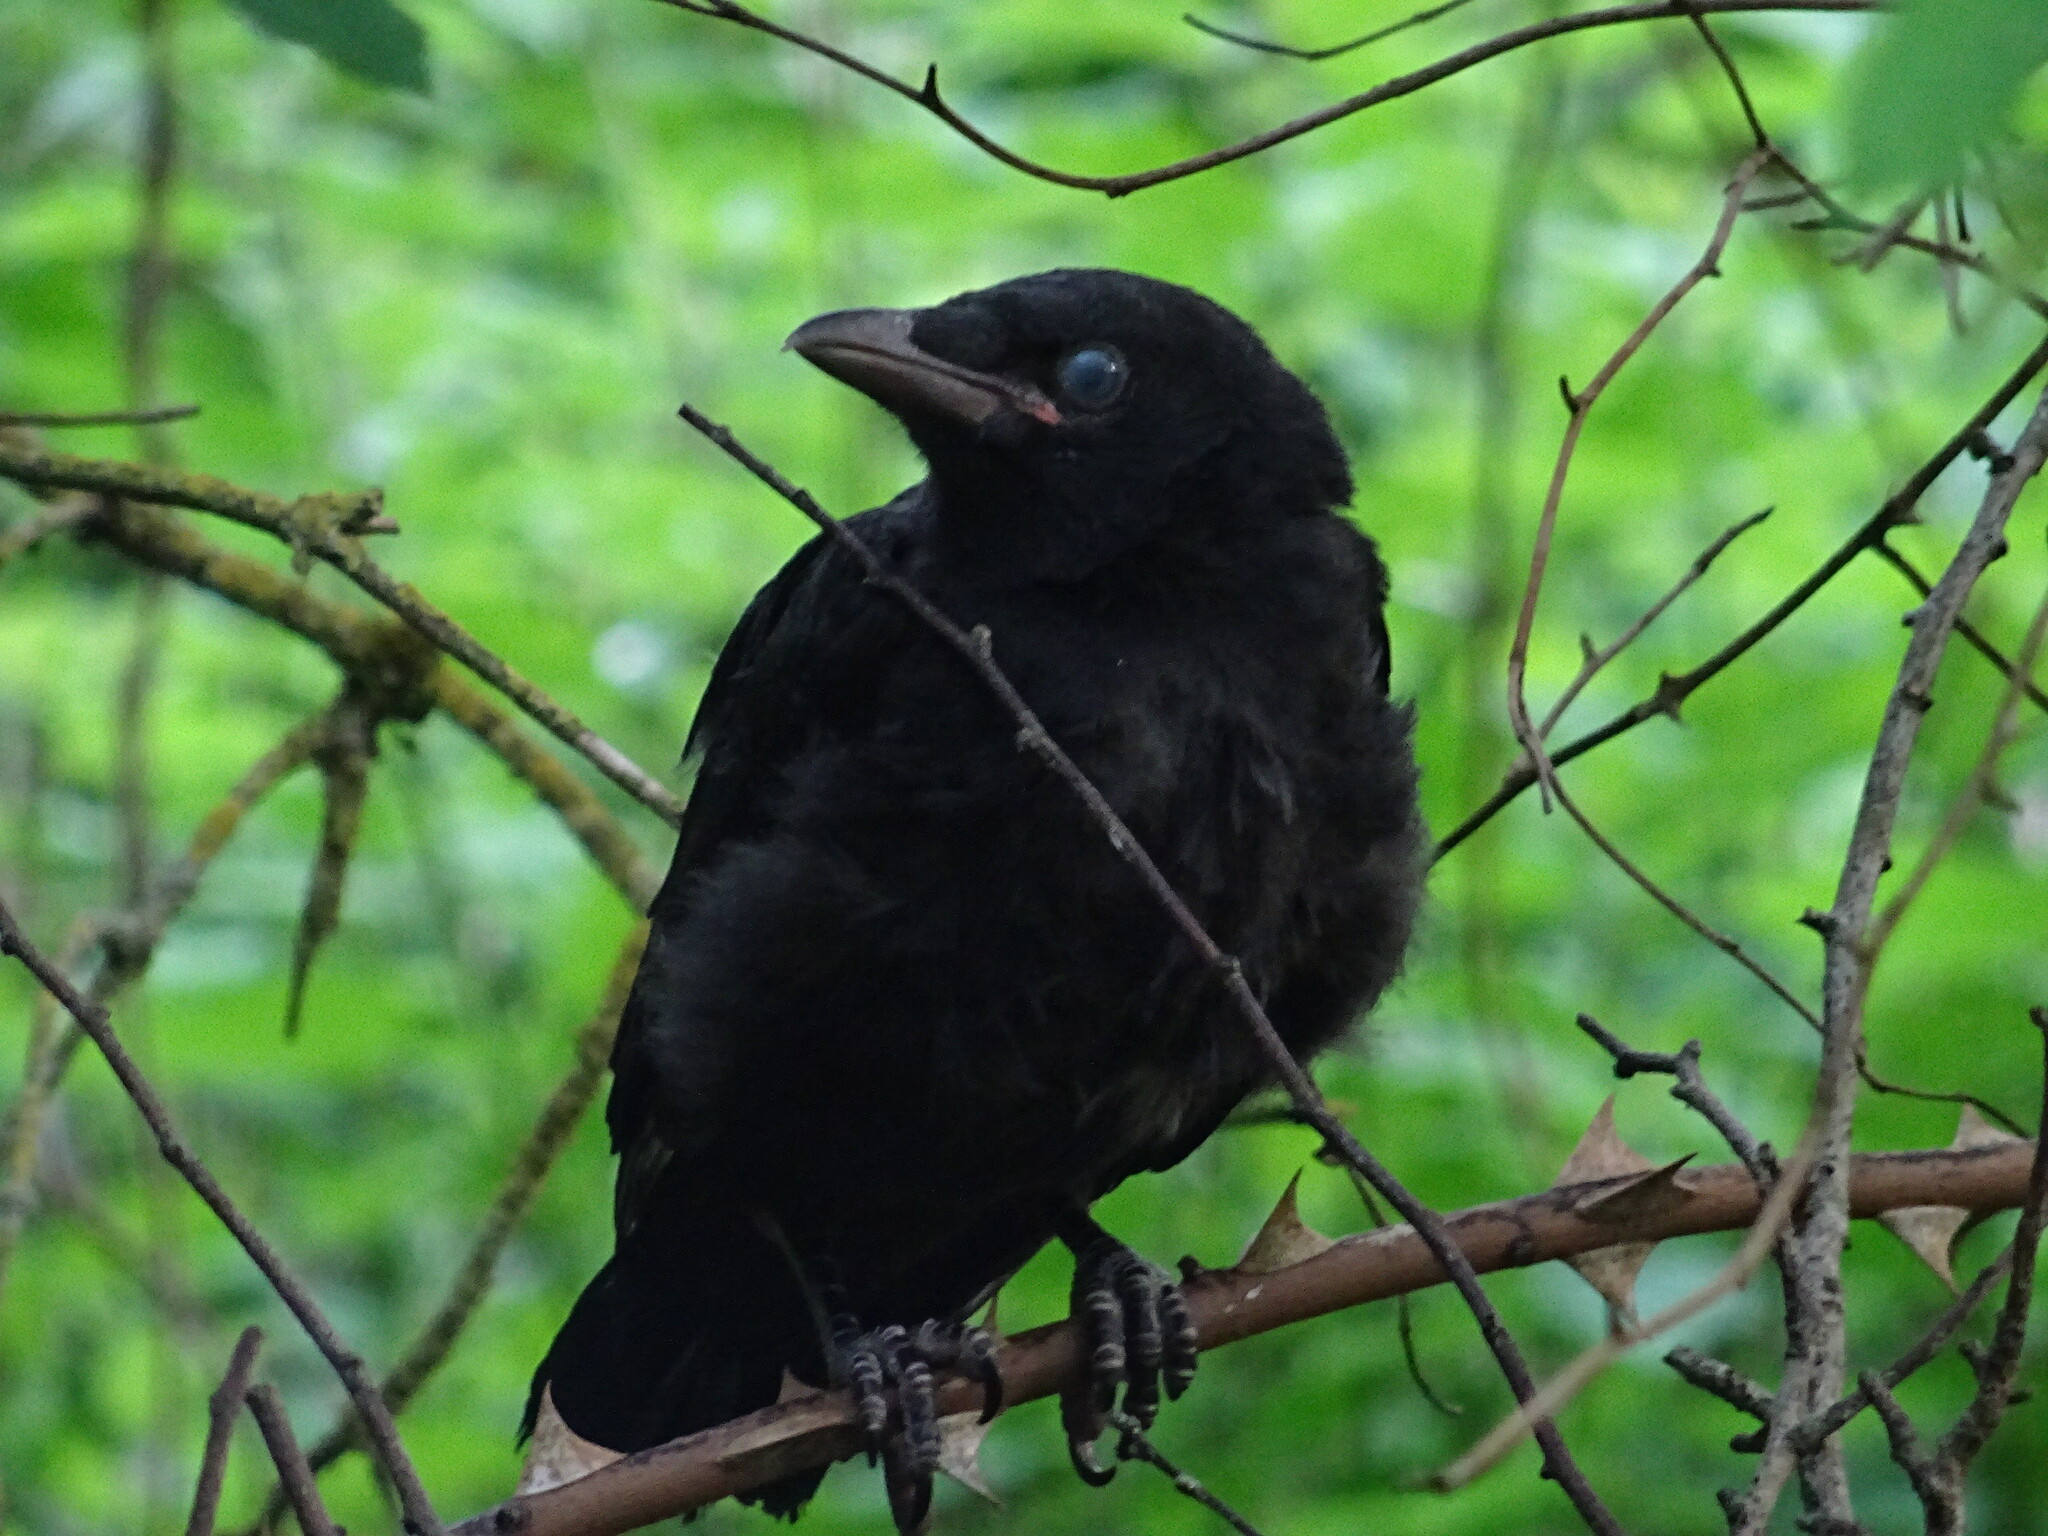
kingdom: Animalia
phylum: Chordata
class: Aves
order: Passeriformes
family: Corvidae
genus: Corvus
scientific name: Corvus corone
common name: Carrion crow
